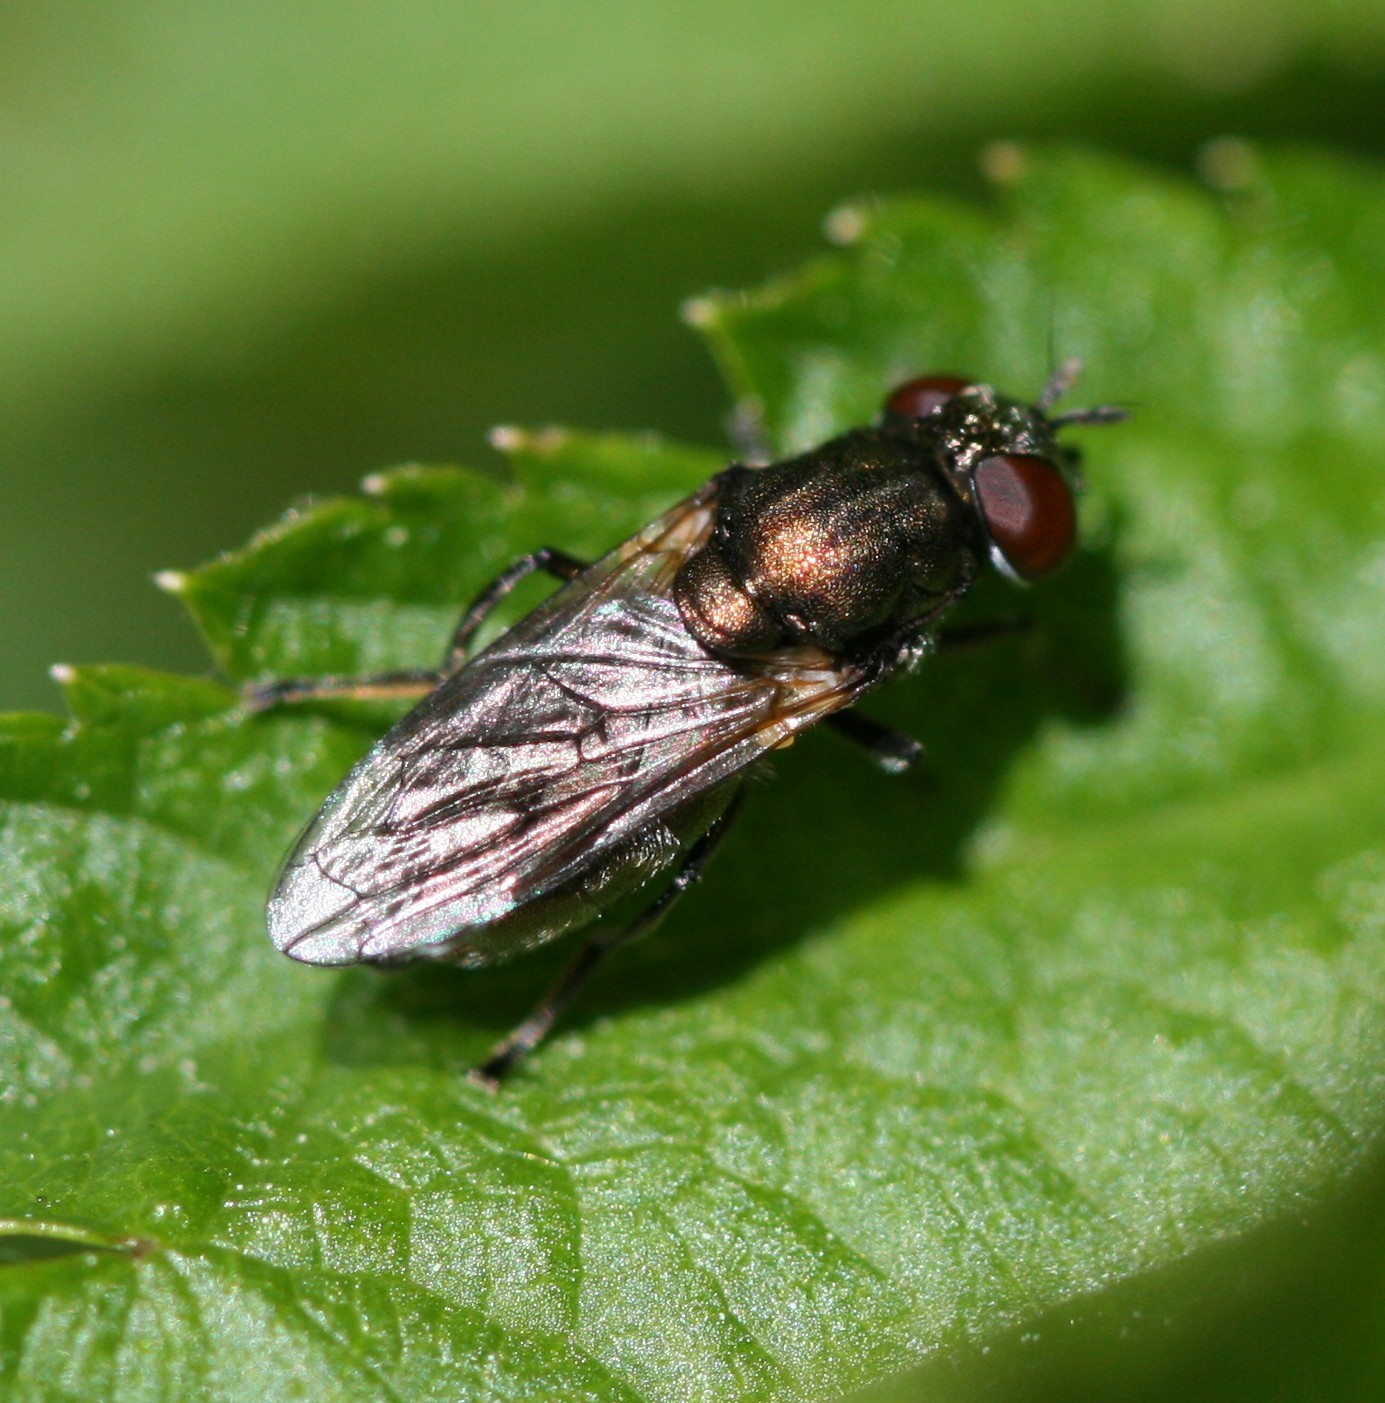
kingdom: Animalia
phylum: Arthropoda
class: Insecta
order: Diptera
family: Syrphidae
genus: Orthonevra
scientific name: Orthonevra
